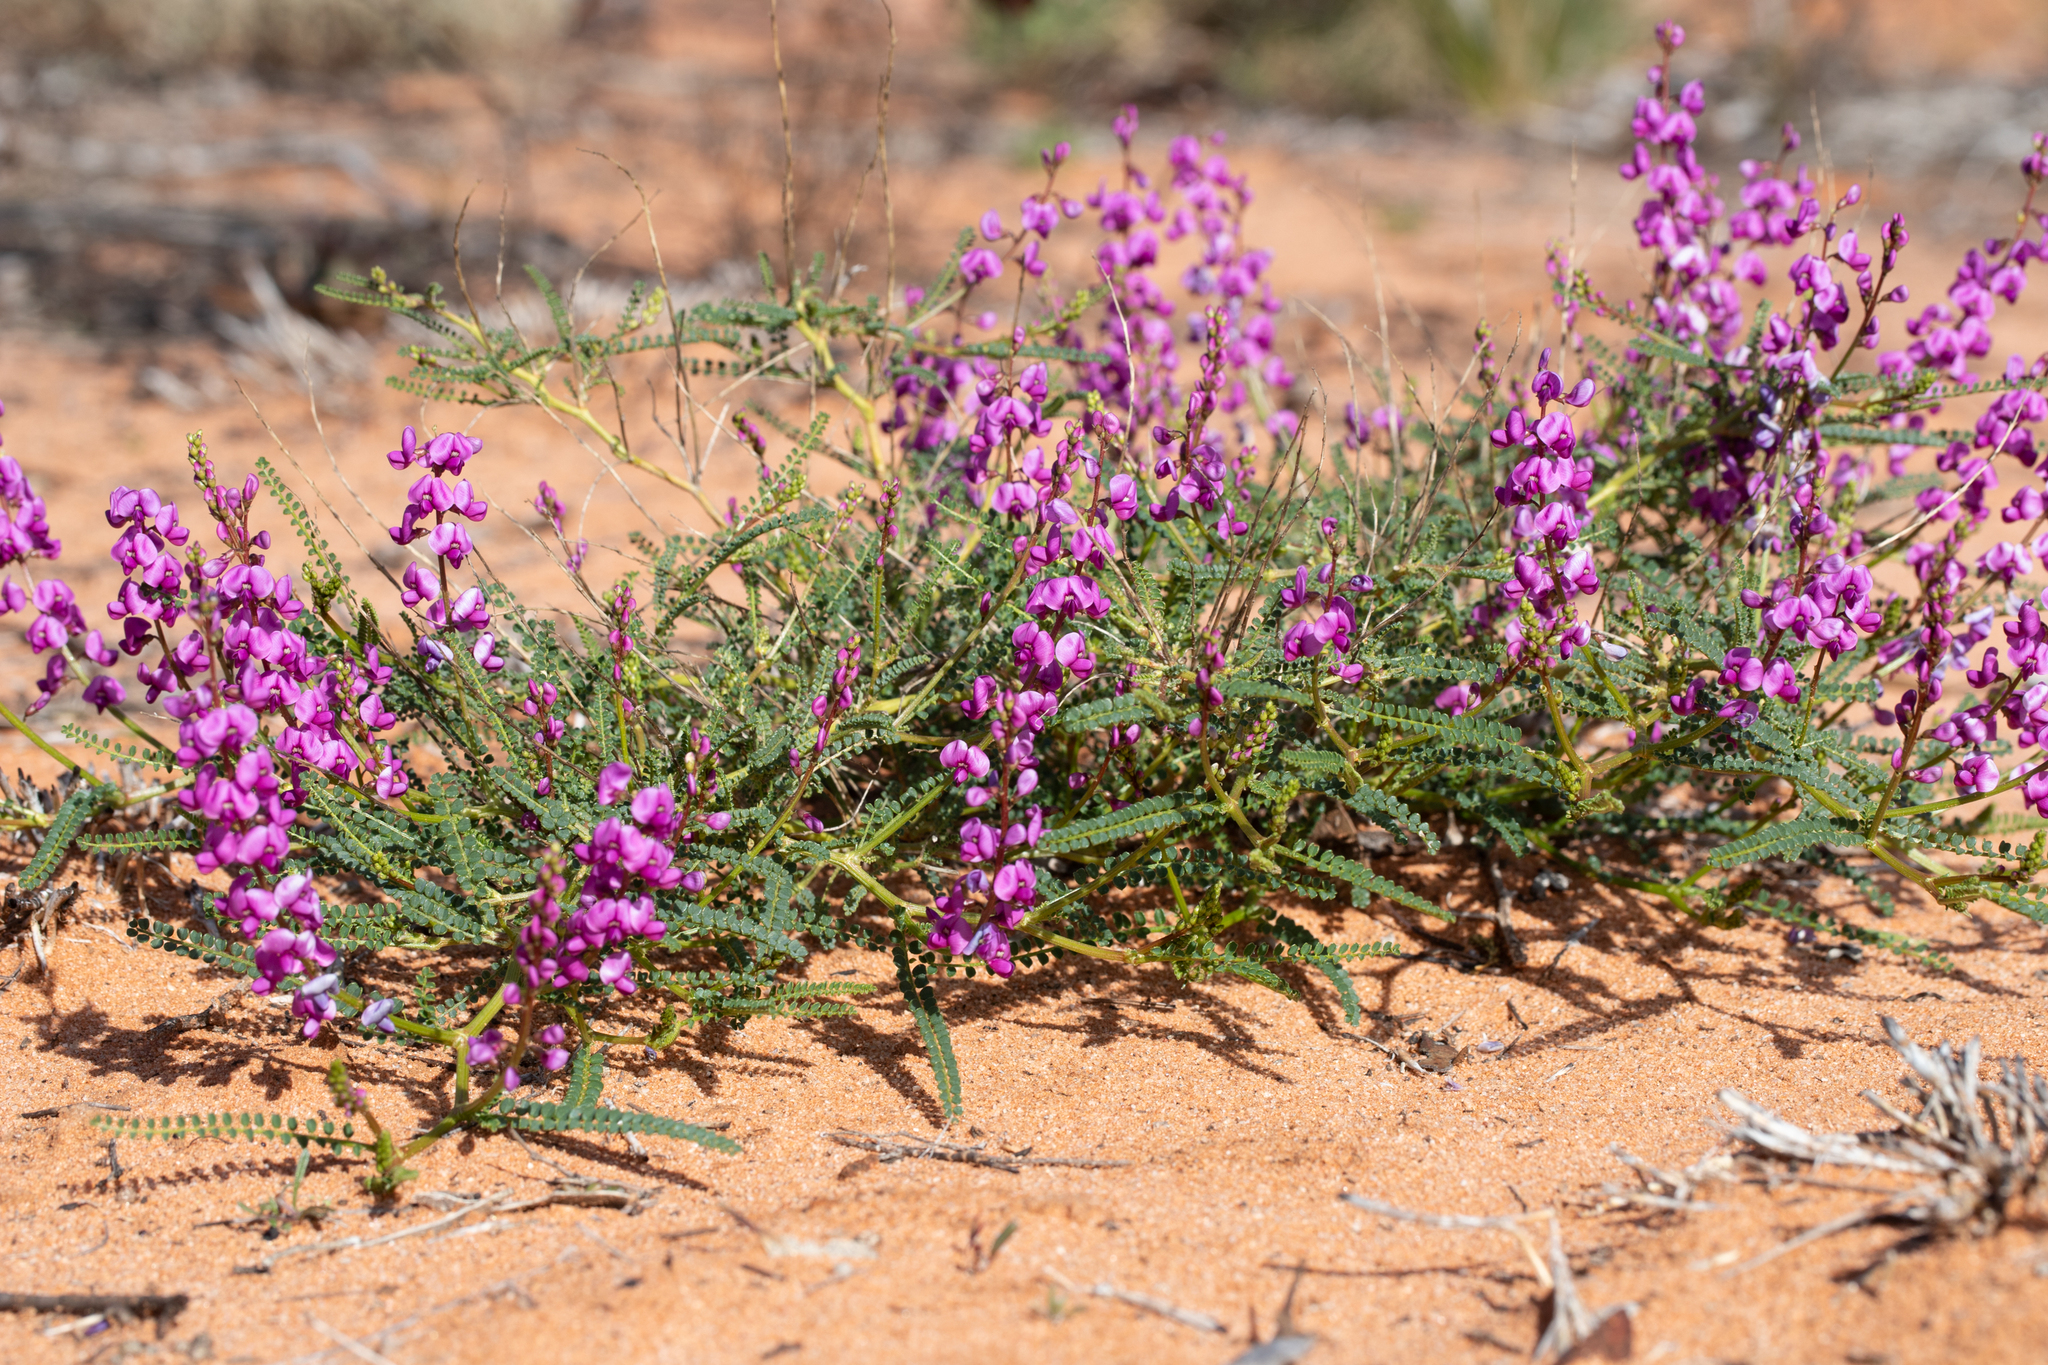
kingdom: Plantae
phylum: Tracheophyta
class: Magnoliopsida
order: Fabales
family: Fabaceae
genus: Swainsona
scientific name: Swainsona microphylla
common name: Small-leaf swainsona-pea
